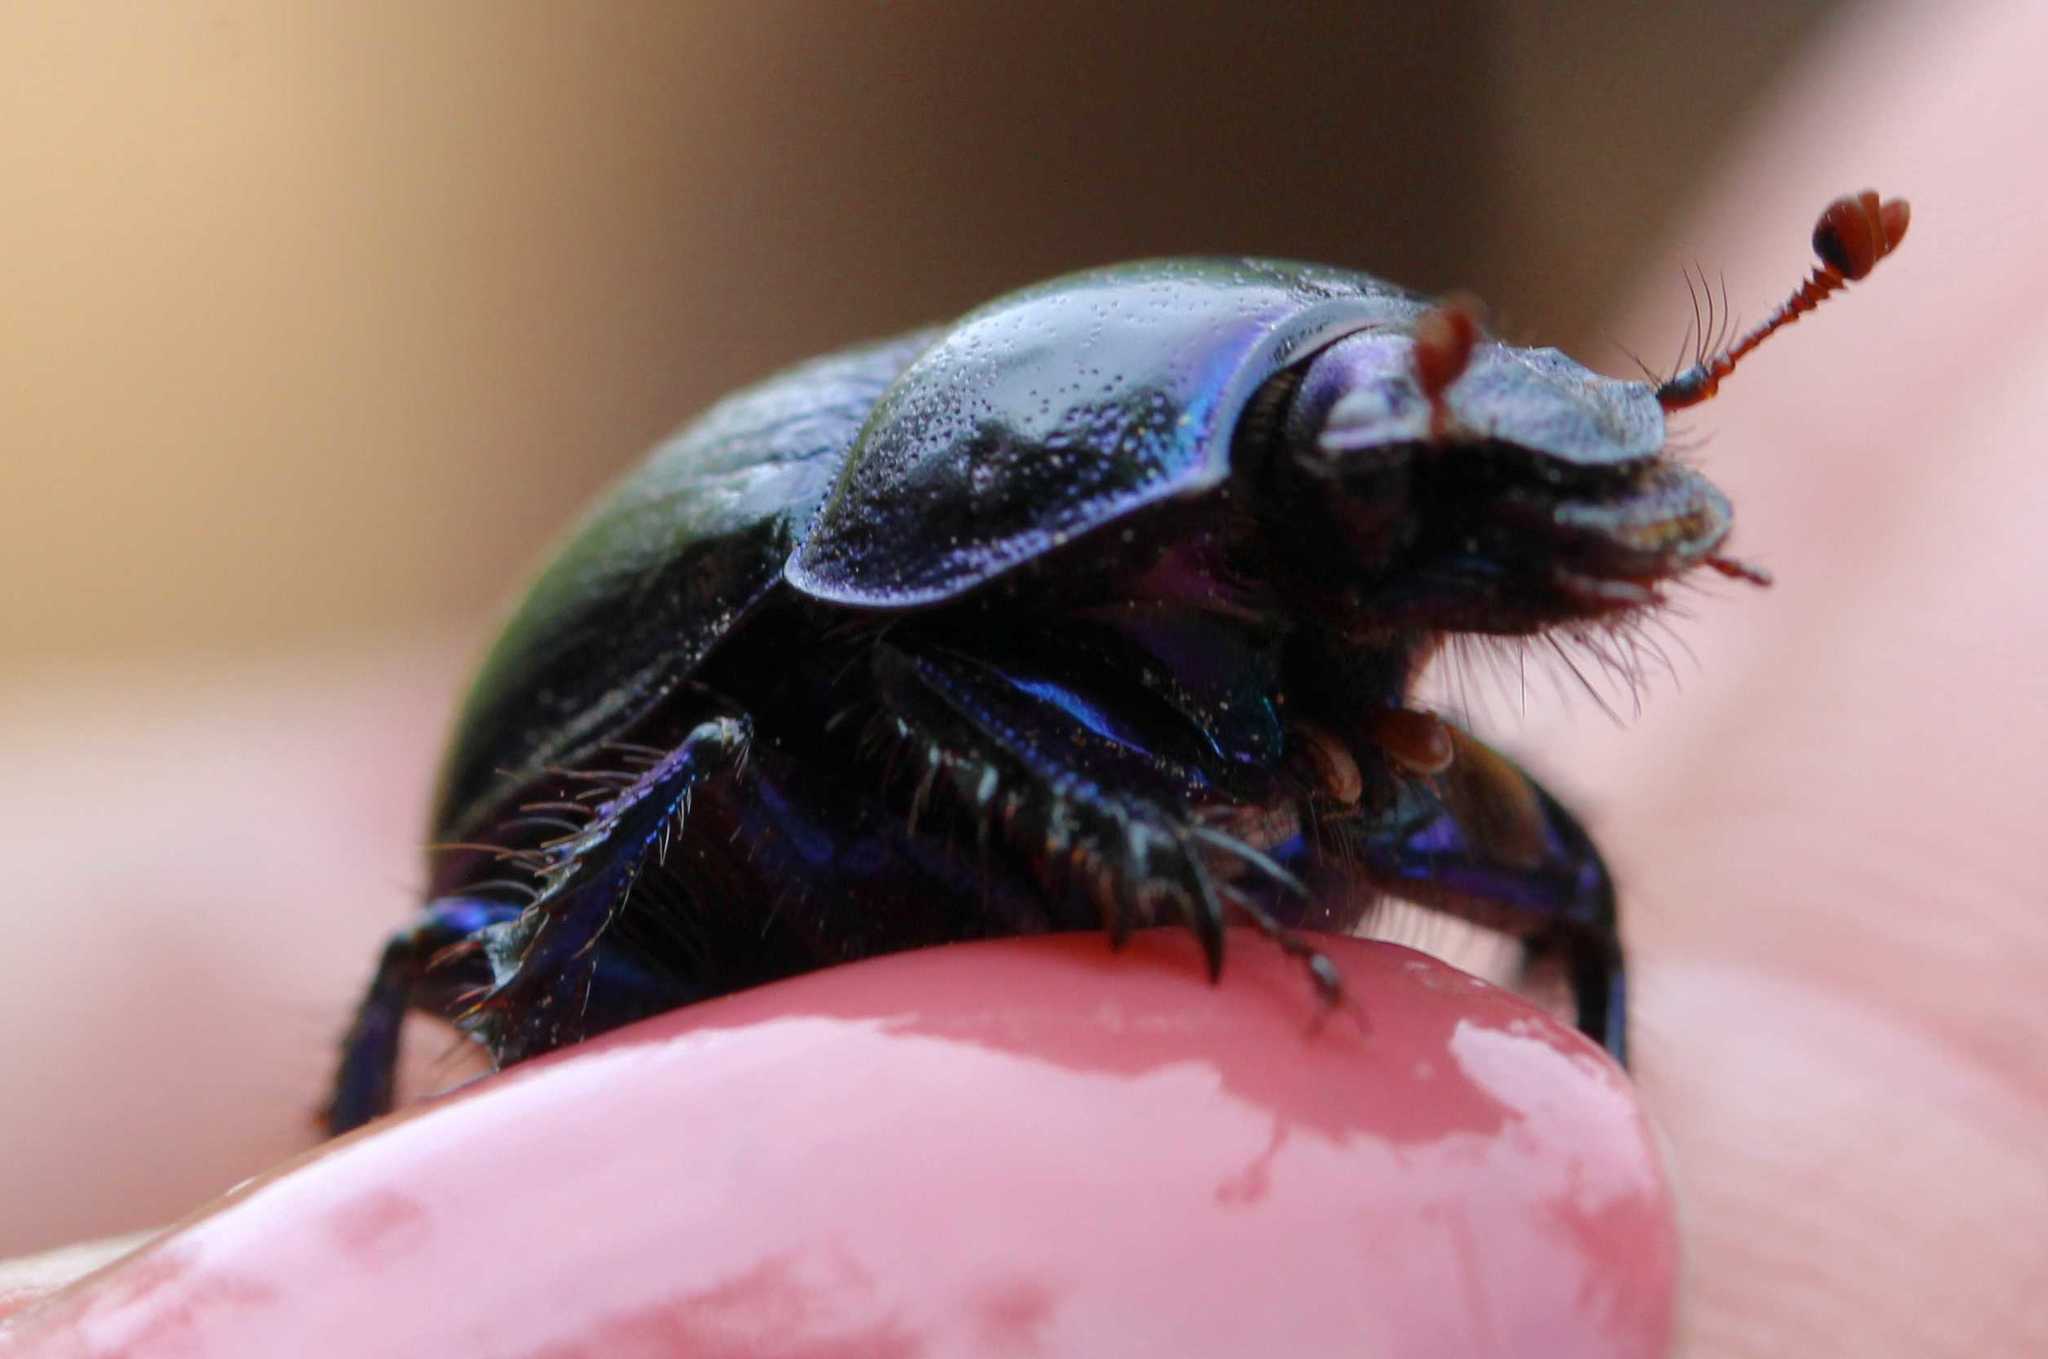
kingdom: Animalia
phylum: Arthropoda
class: Insecta
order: Coleoptera
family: Geotrupidae
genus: Anoplotrupes
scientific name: Anoplotrupes stercorosus
